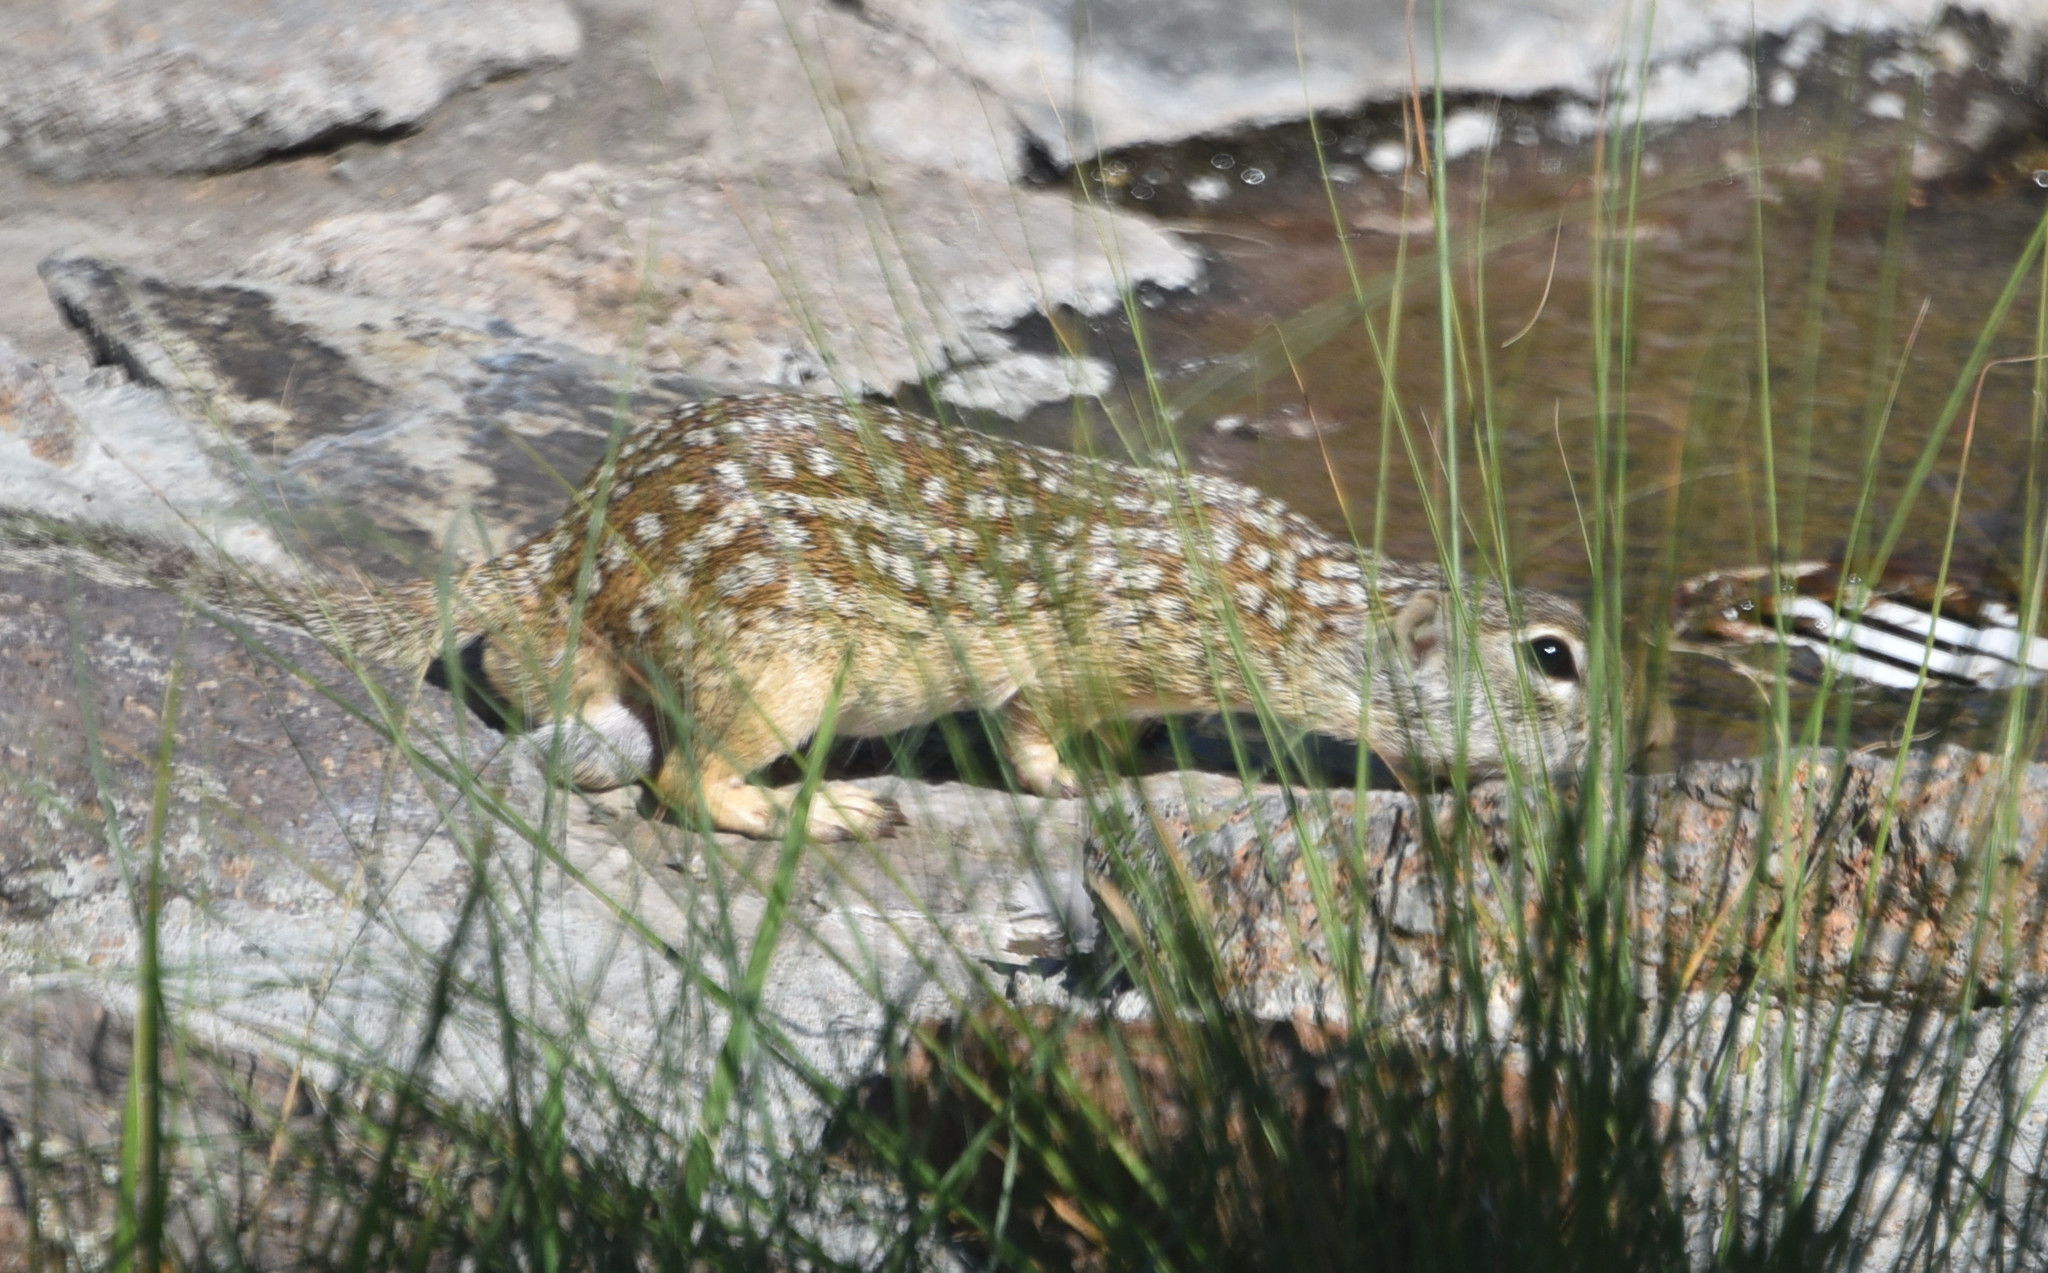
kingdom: Animalia
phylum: Chordata
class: Mammalia
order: Rodentia
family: Sciuridae
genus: Ictidomys
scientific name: Ictidomys parvidens
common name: Rio grande ground squirrel
